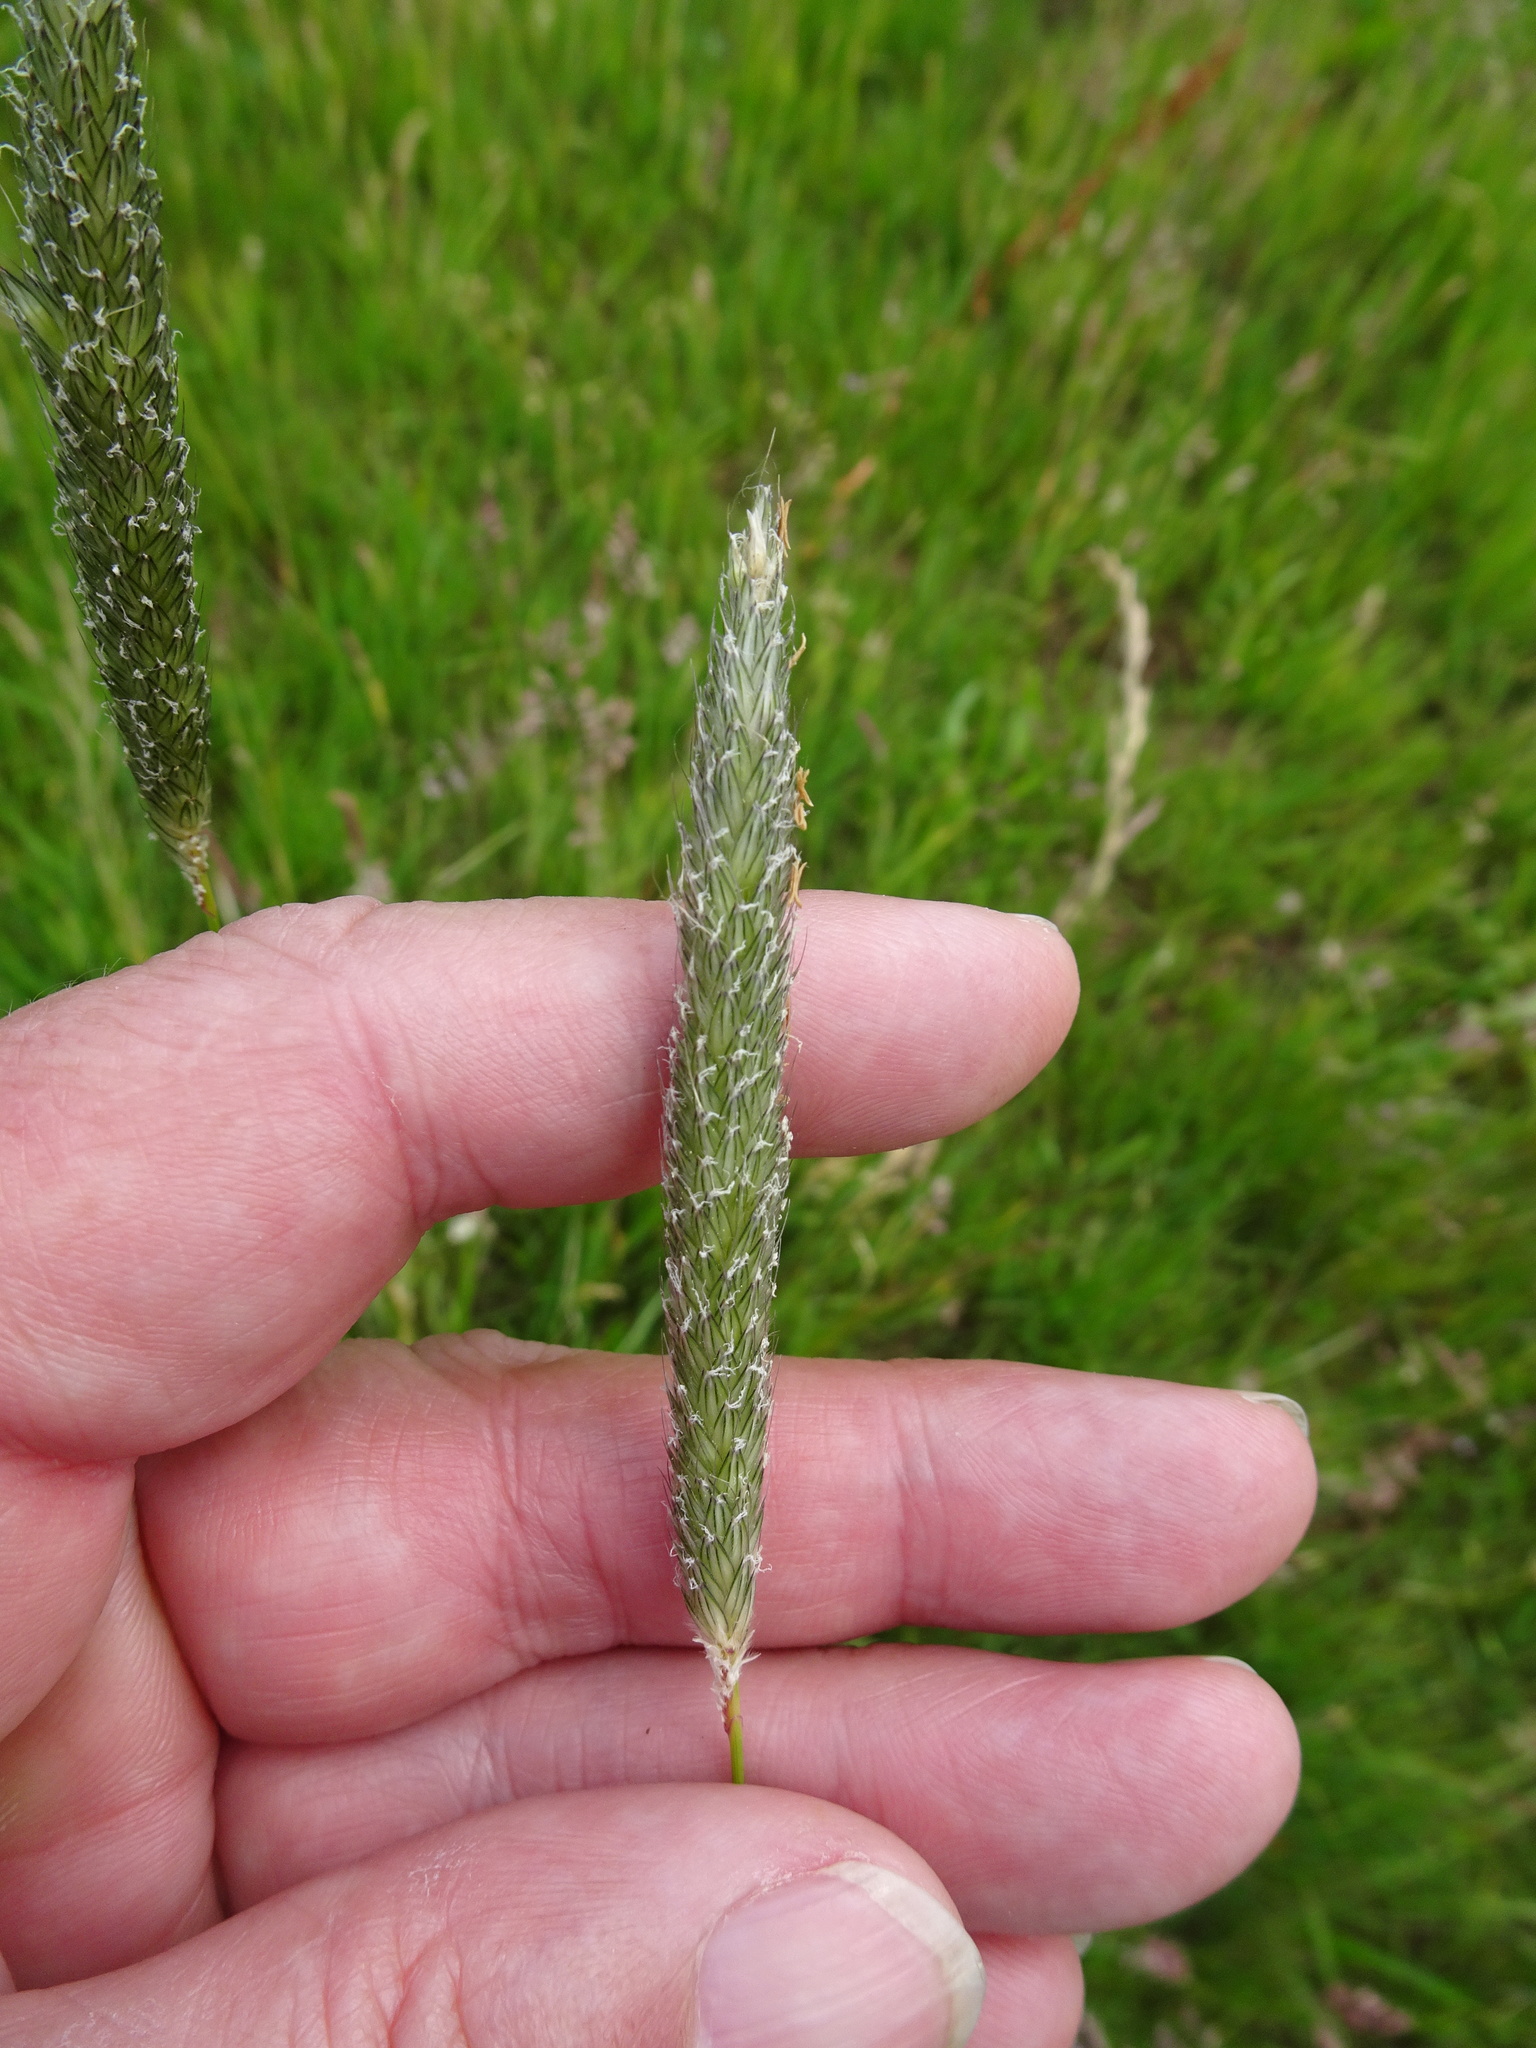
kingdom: Plantae
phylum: Tracheophyta
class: Liliopsida
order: Poales
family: Poaceae
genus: Alopecurus
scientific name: Alopecurus pratensis
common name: Meadow foxtail
